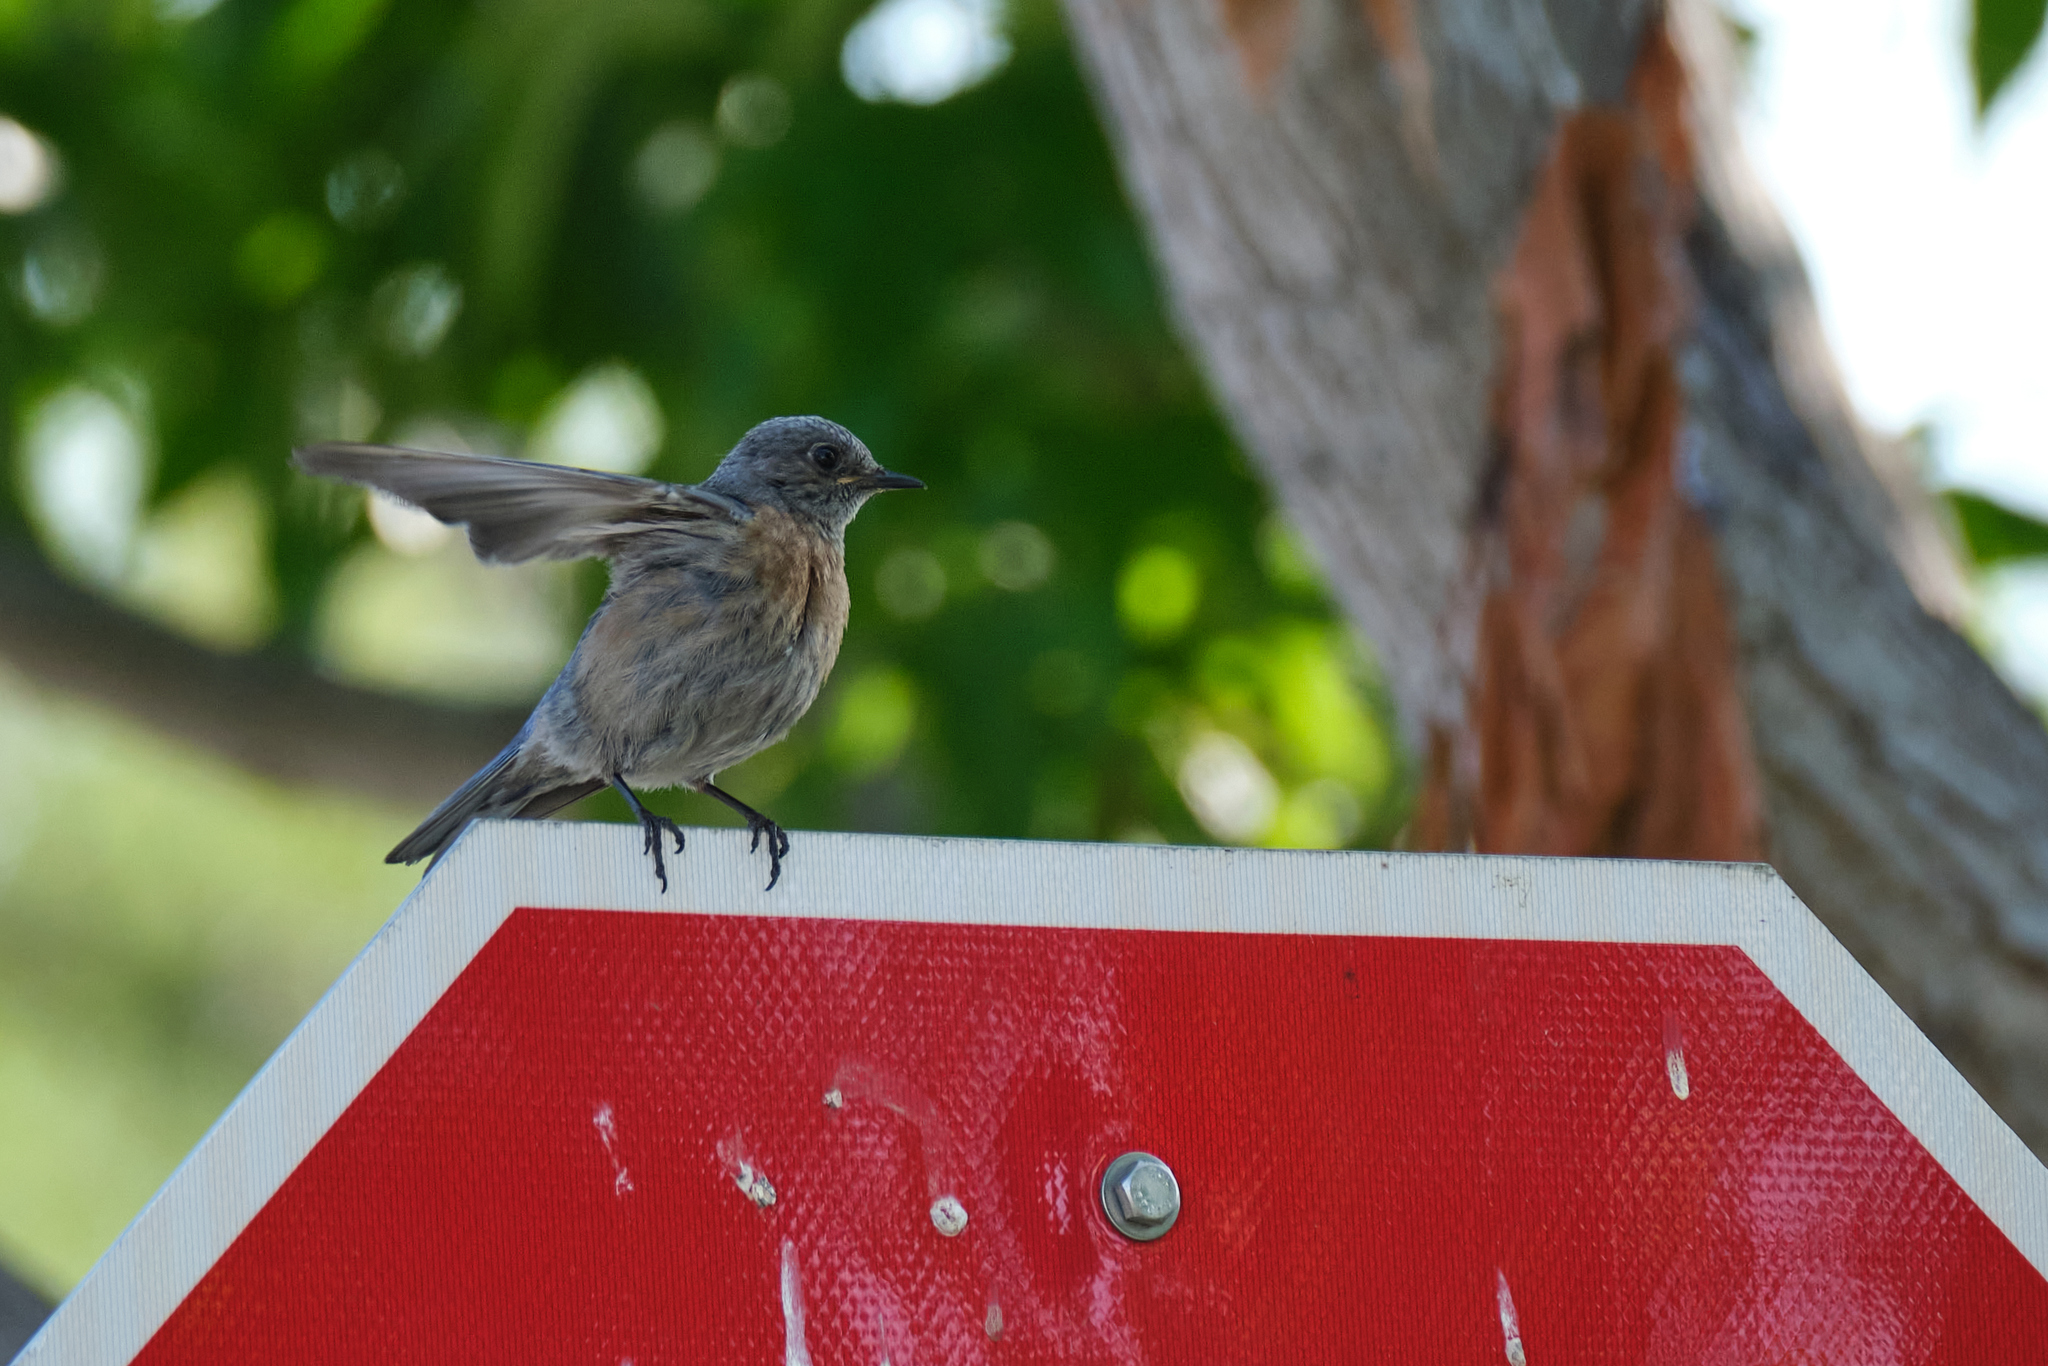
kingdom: Animalia
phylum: Chordata
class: Aves
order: Passeriformes
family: Turdidae
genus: Sialia
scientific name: Sialia mexicana
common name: Western bluebird
